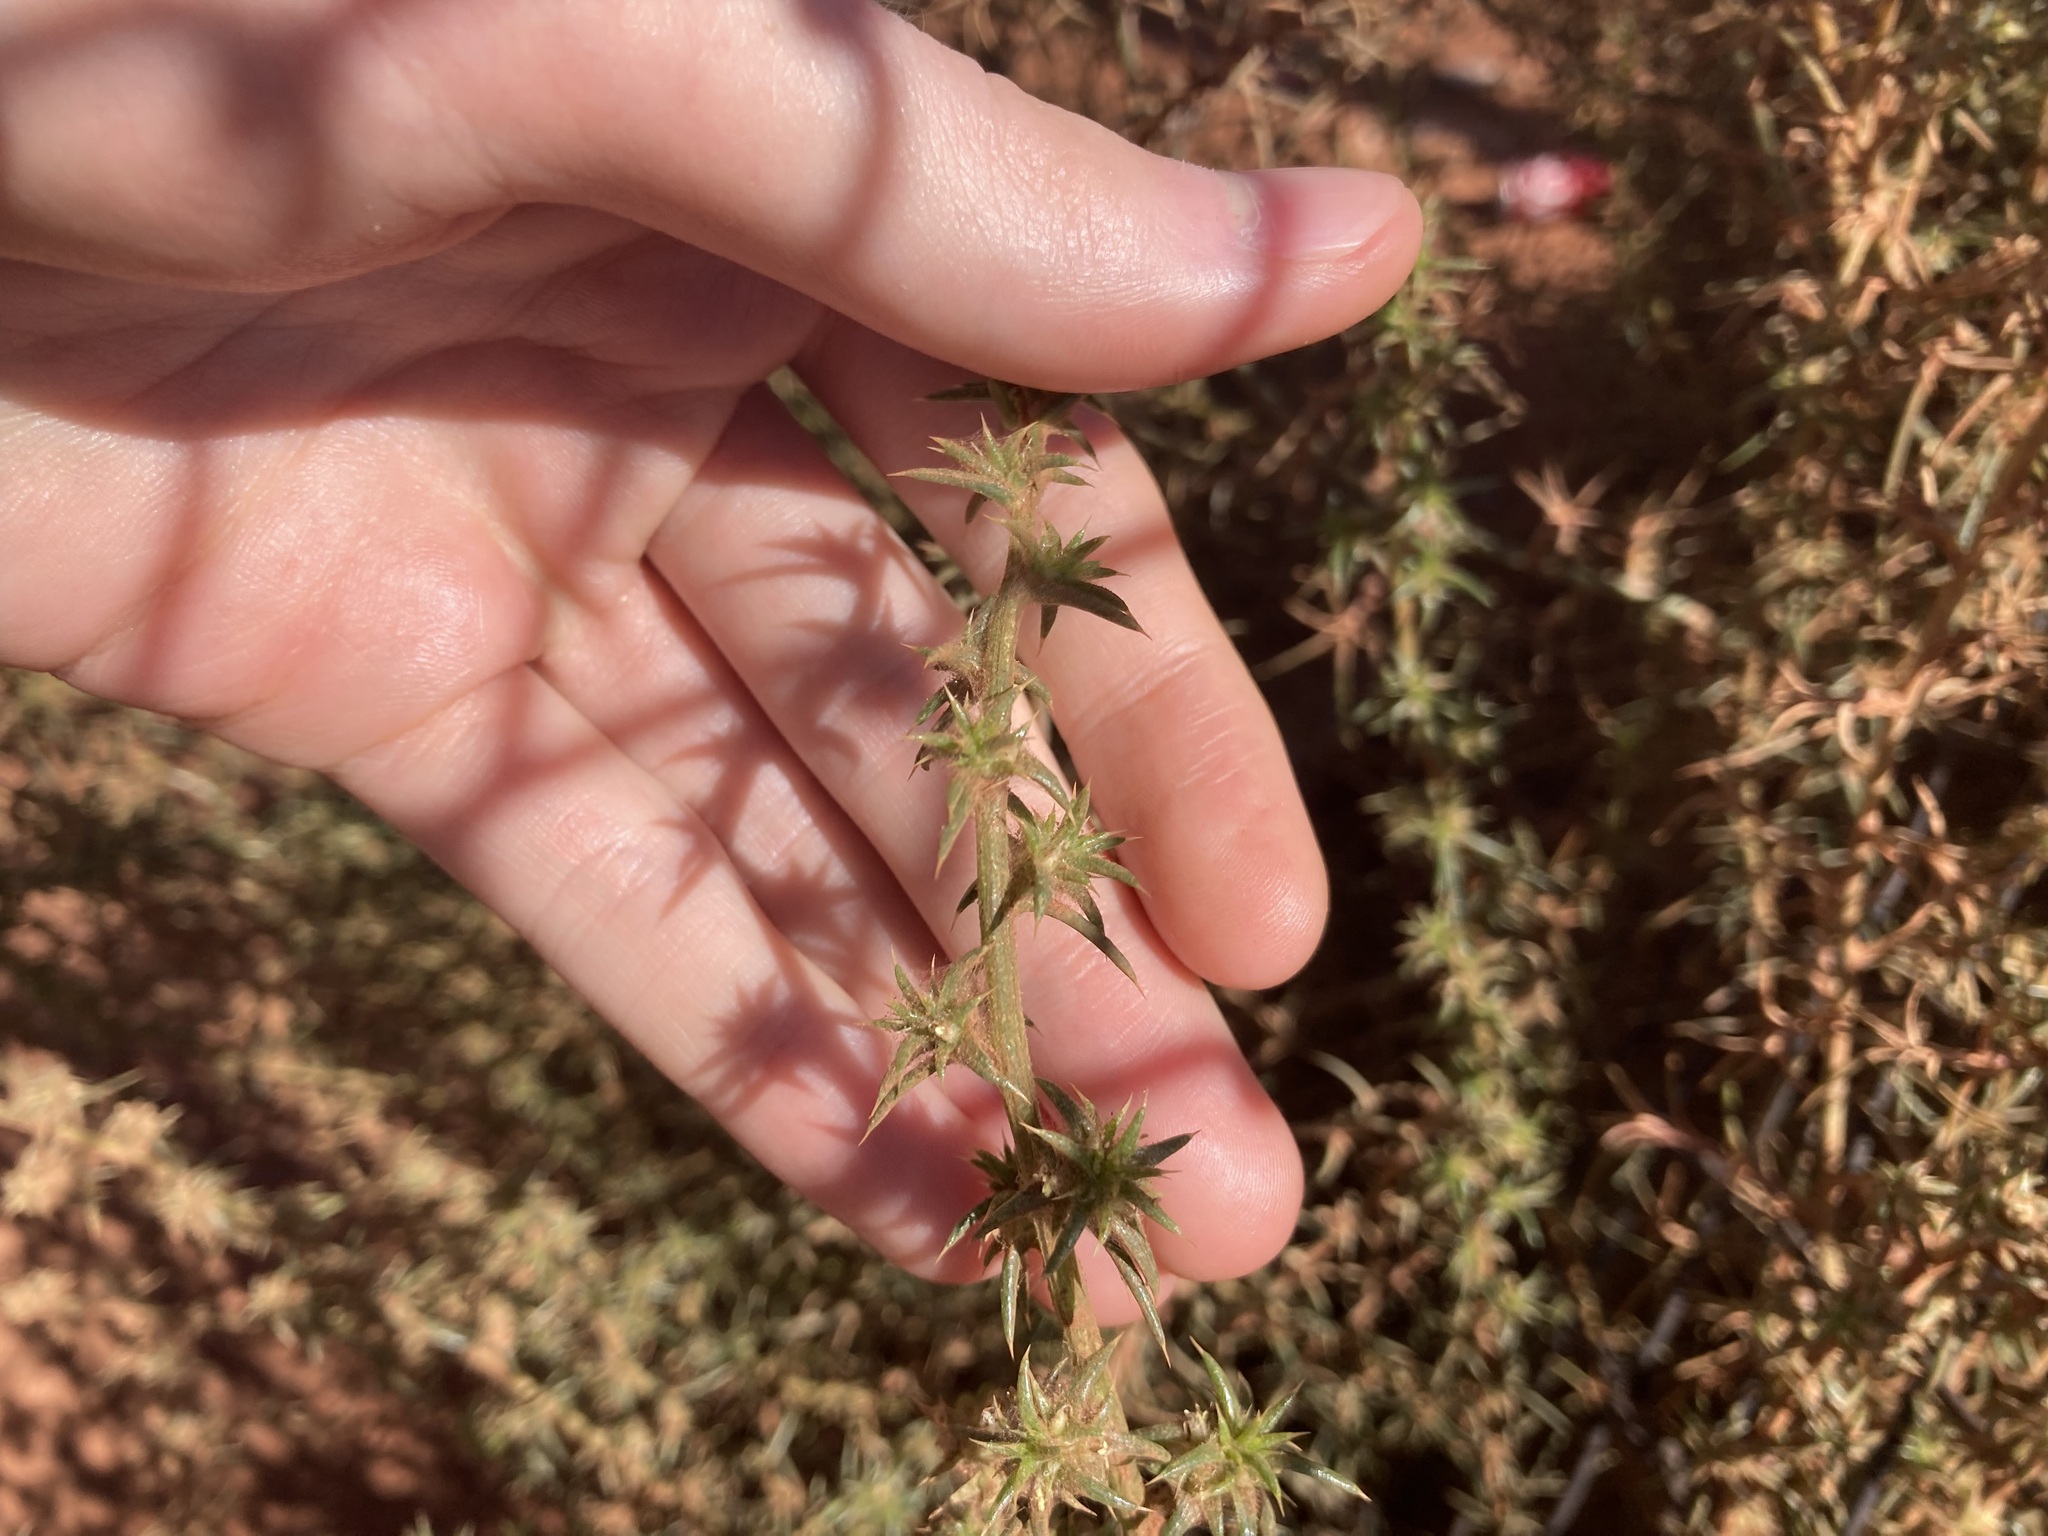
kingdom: Plantae
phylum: Tracheophyta
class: Magnoliopsida
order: Caryophyllales
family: Amaranthaceae
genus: Salsola
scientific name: Salsola australis
